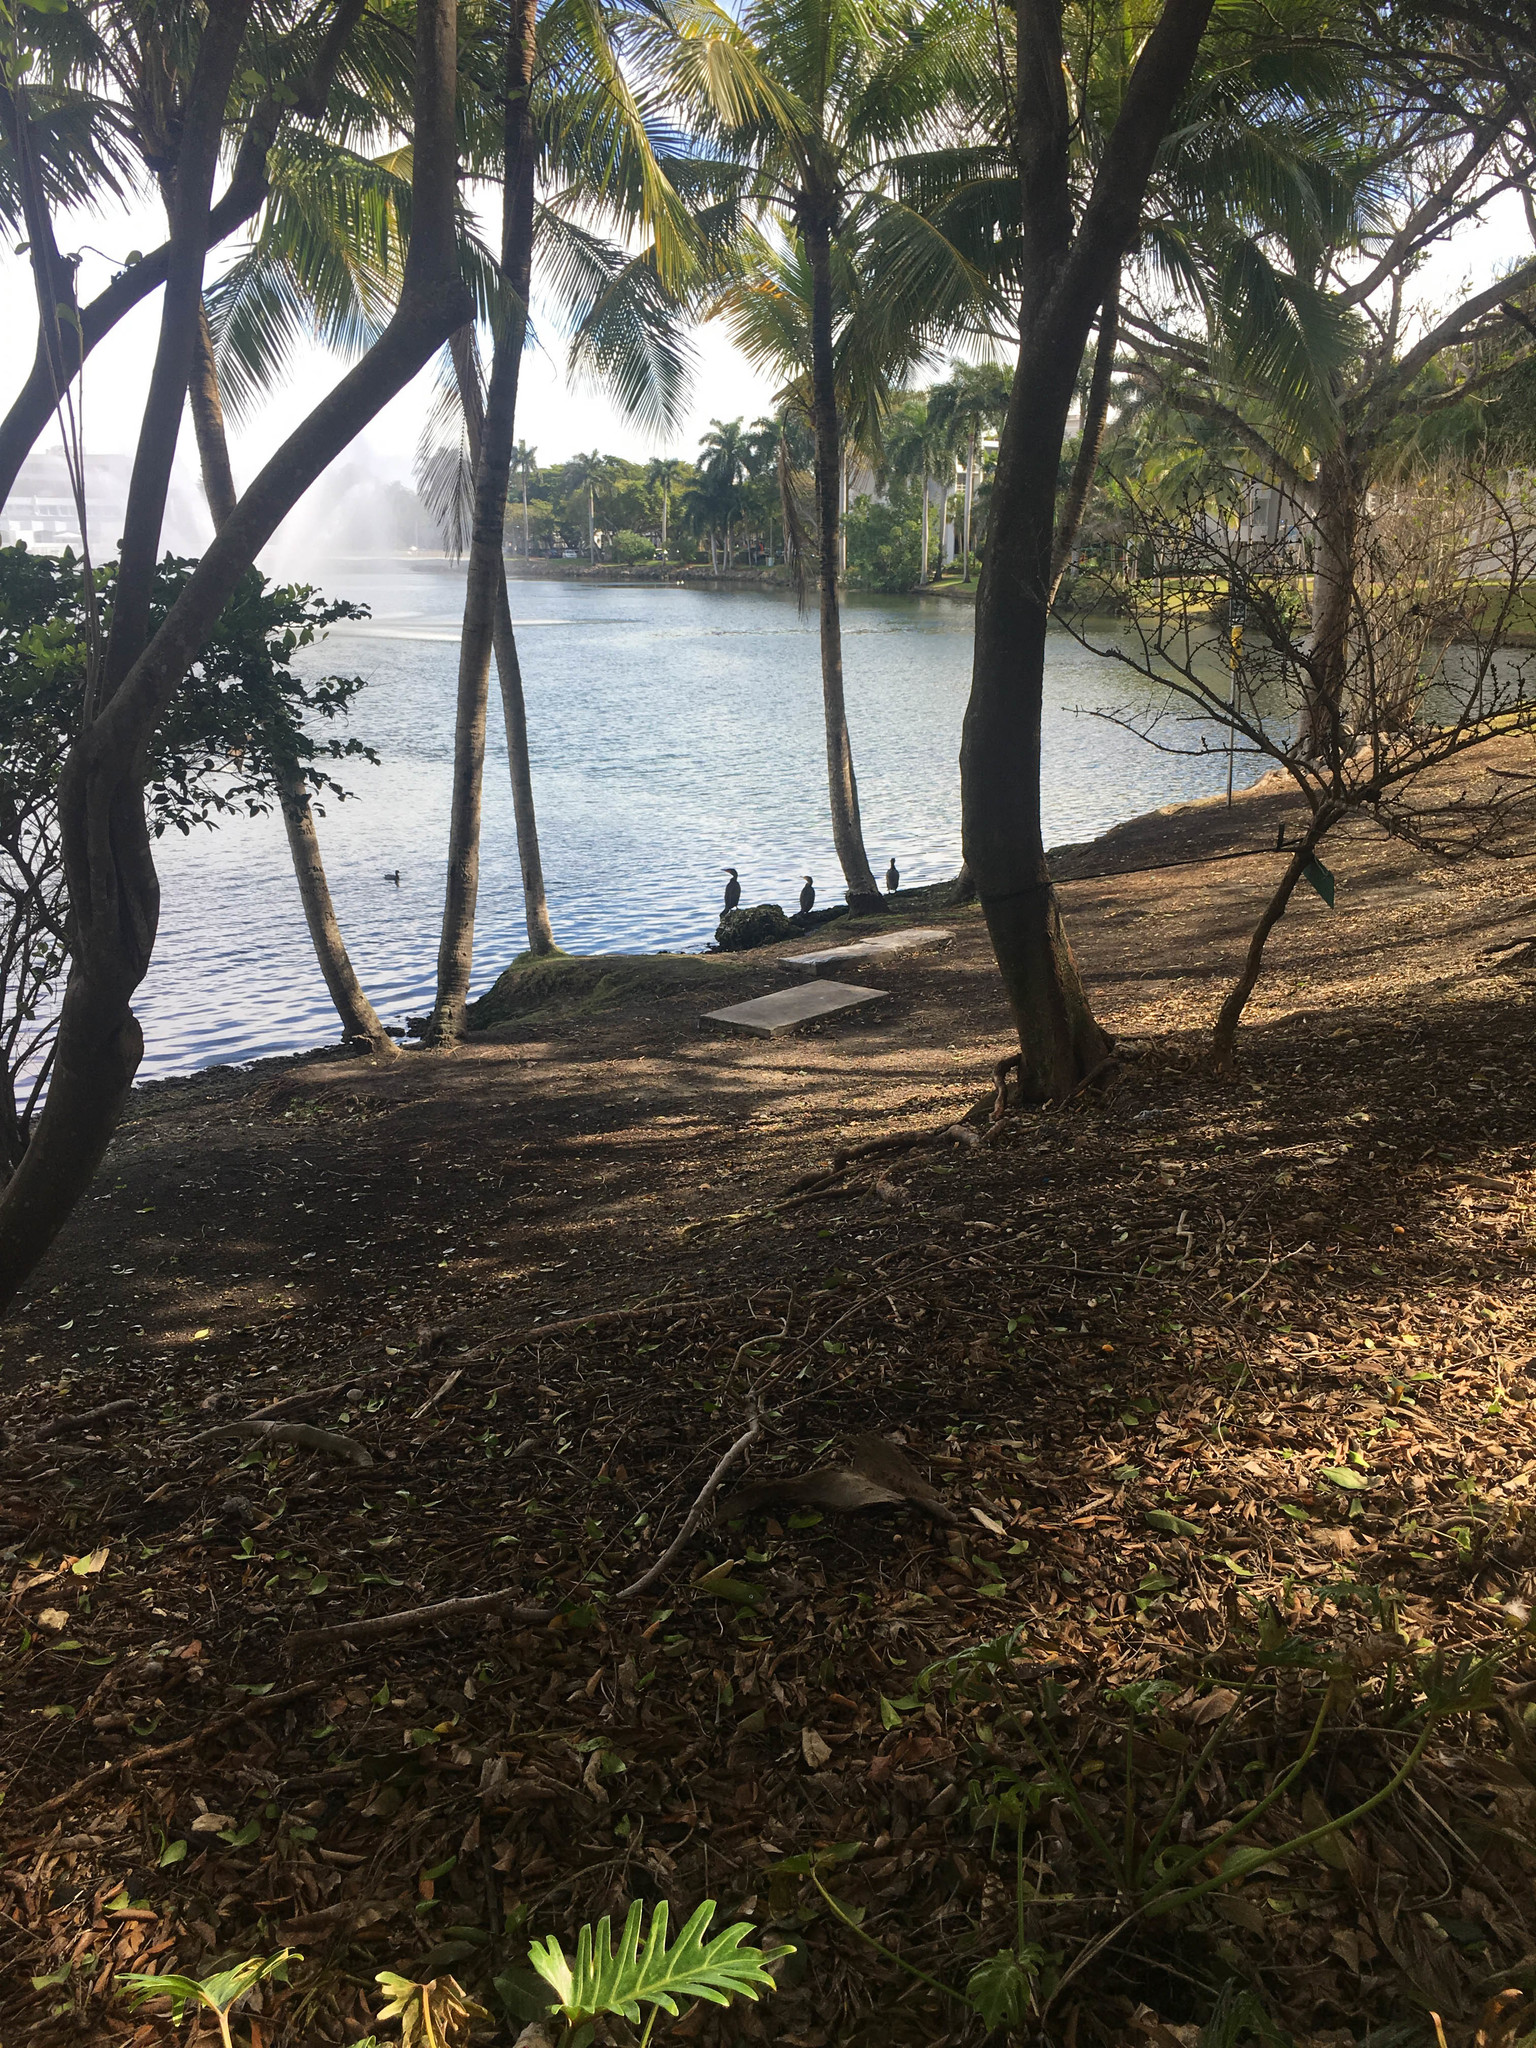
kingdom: Animalia
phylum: Chordata
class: Aves
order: Suliformes
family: Phalacrocoracidae
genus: Phalacrocorax
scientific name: Phalacrocorax auritus
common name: Double-crested cormorant
